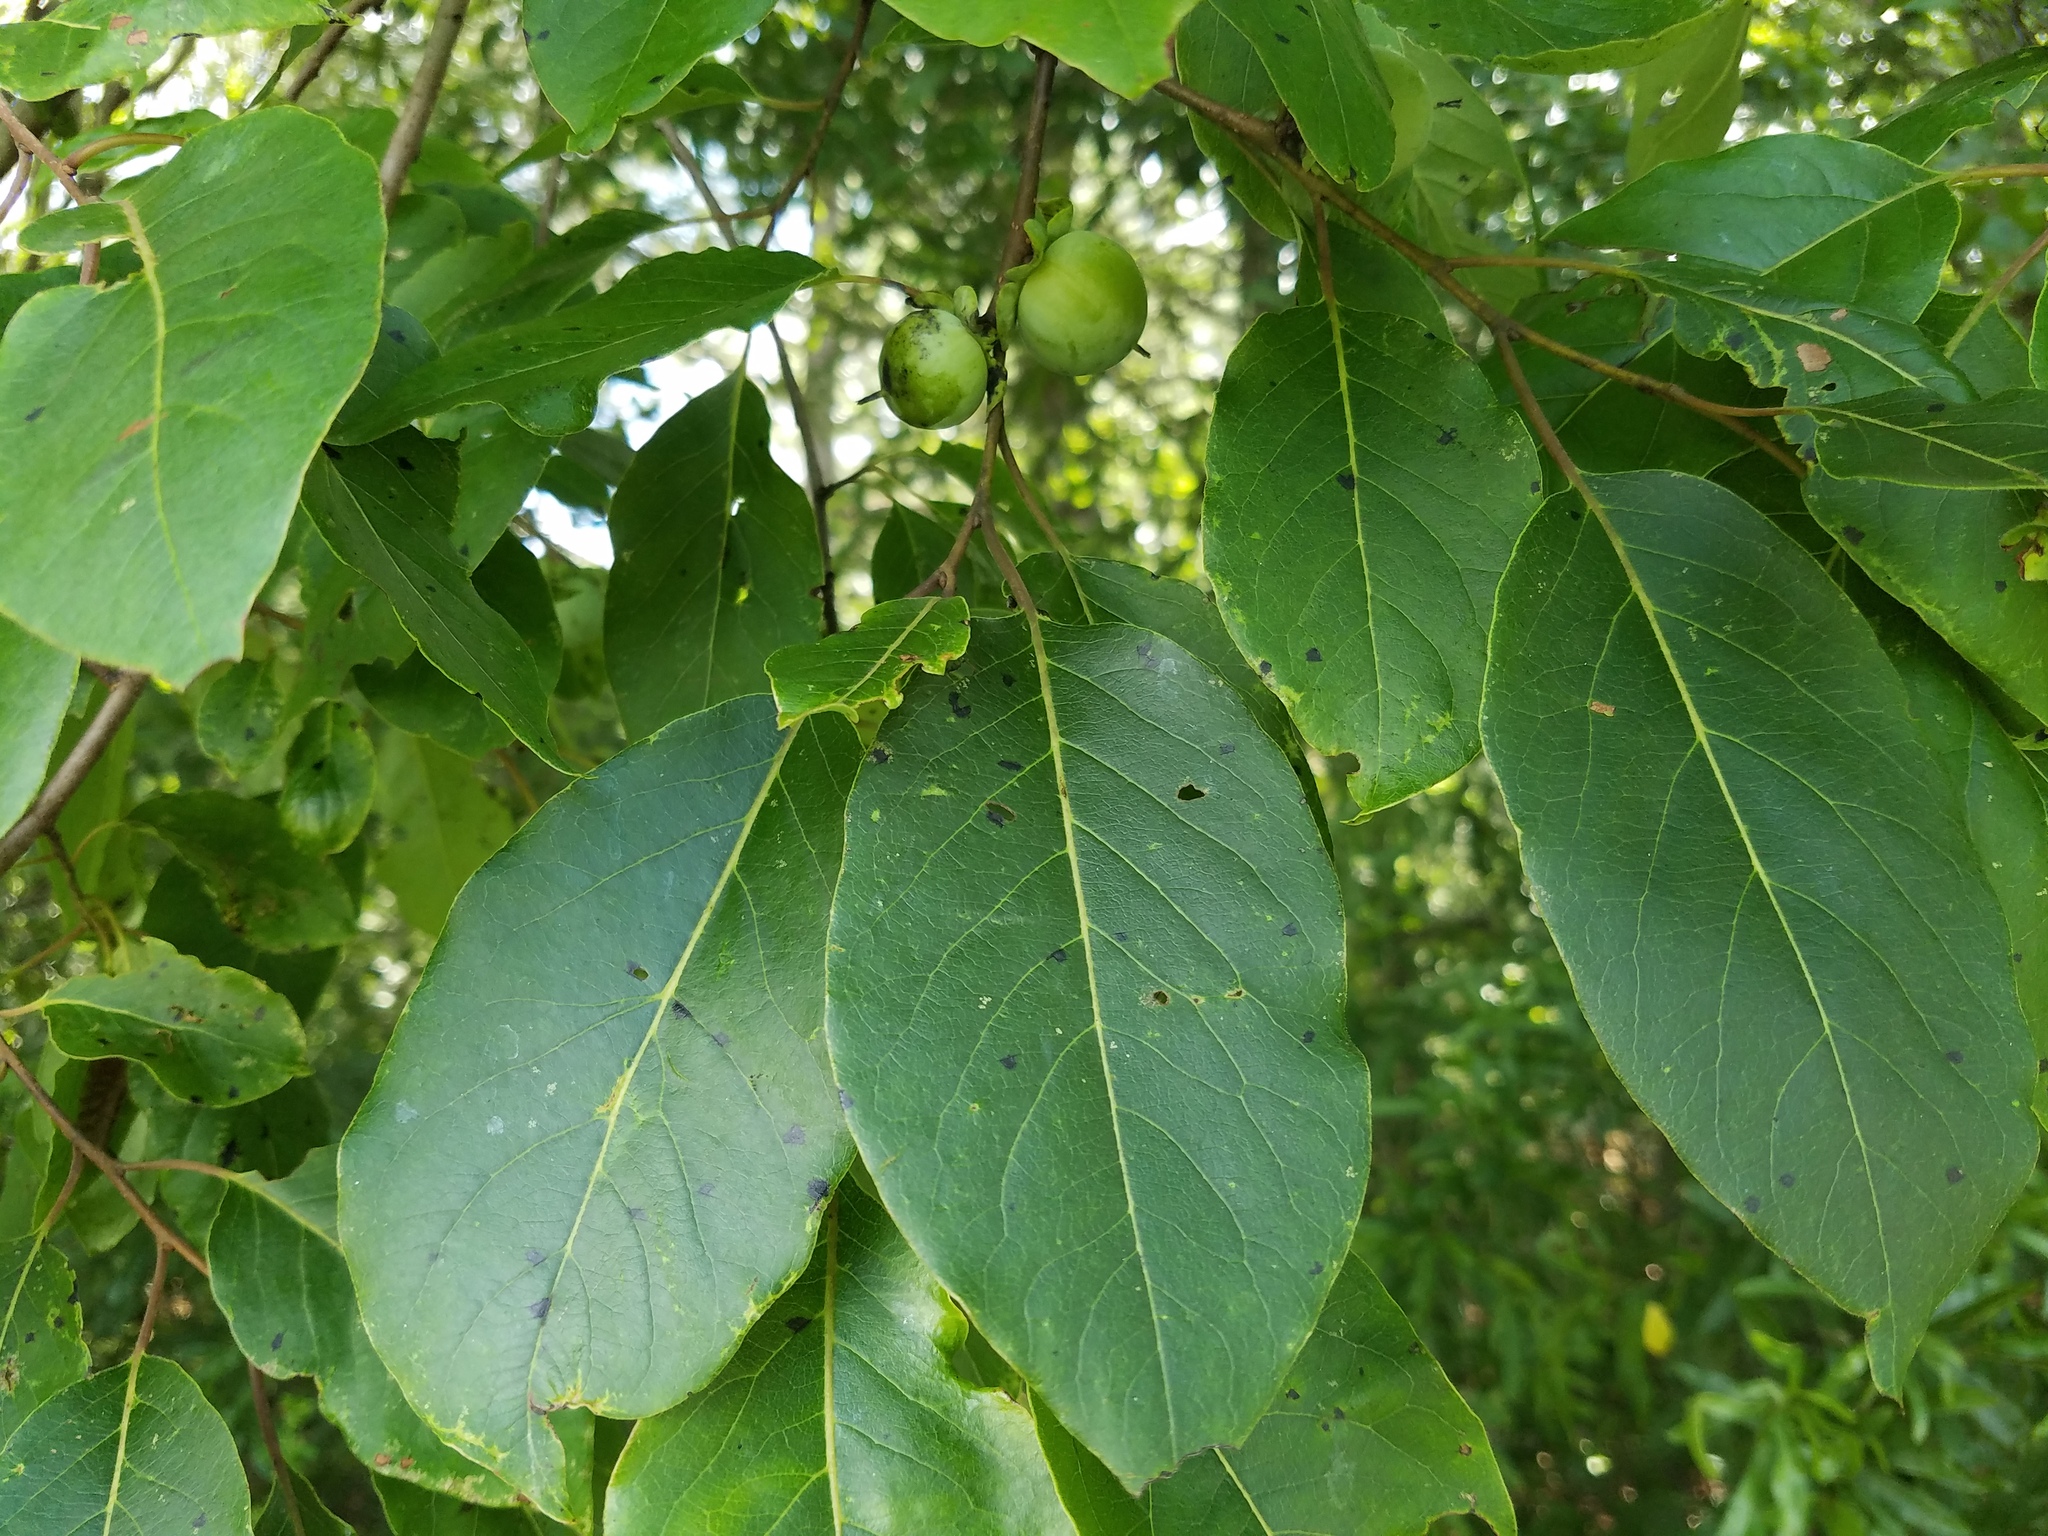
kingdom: Plantae
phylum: Tracheophyta
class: Magnoliopsida
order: Ericales
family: Ebenaceae
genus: Diospyros
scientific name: Diospyros virginiana
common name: Persimmon
